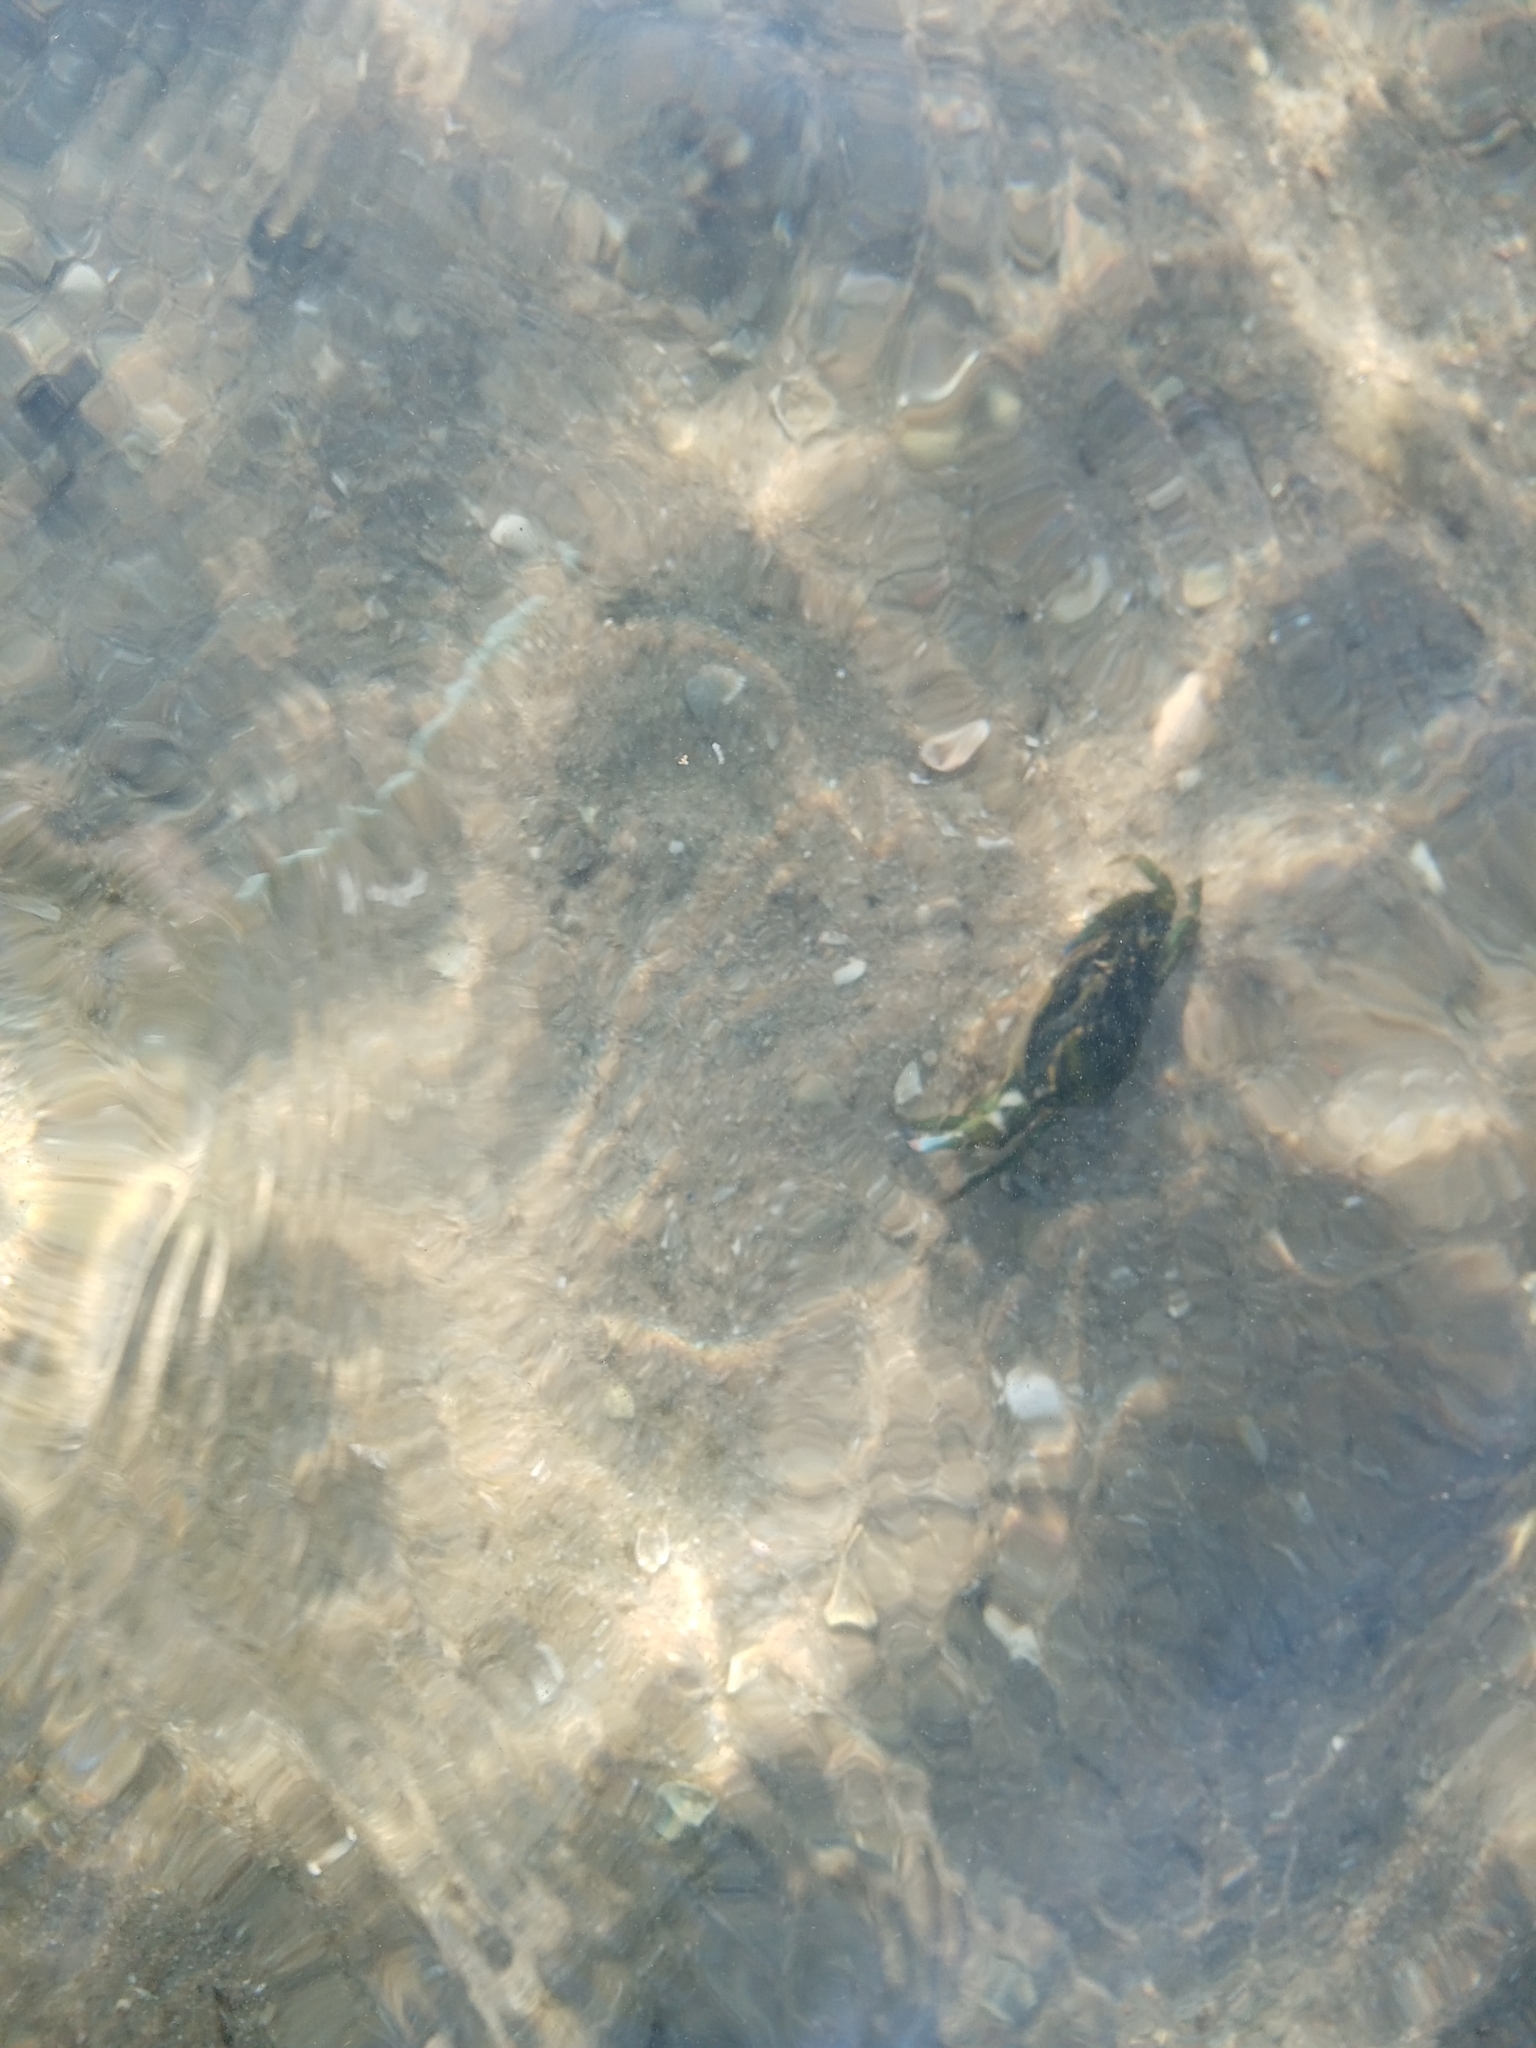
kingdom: Animalia
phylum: Arthropoda
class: Malacostraca
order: Decapoda
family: Carcinidae
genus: Carcinus
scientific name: Carcinus maenas
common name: European green crab
